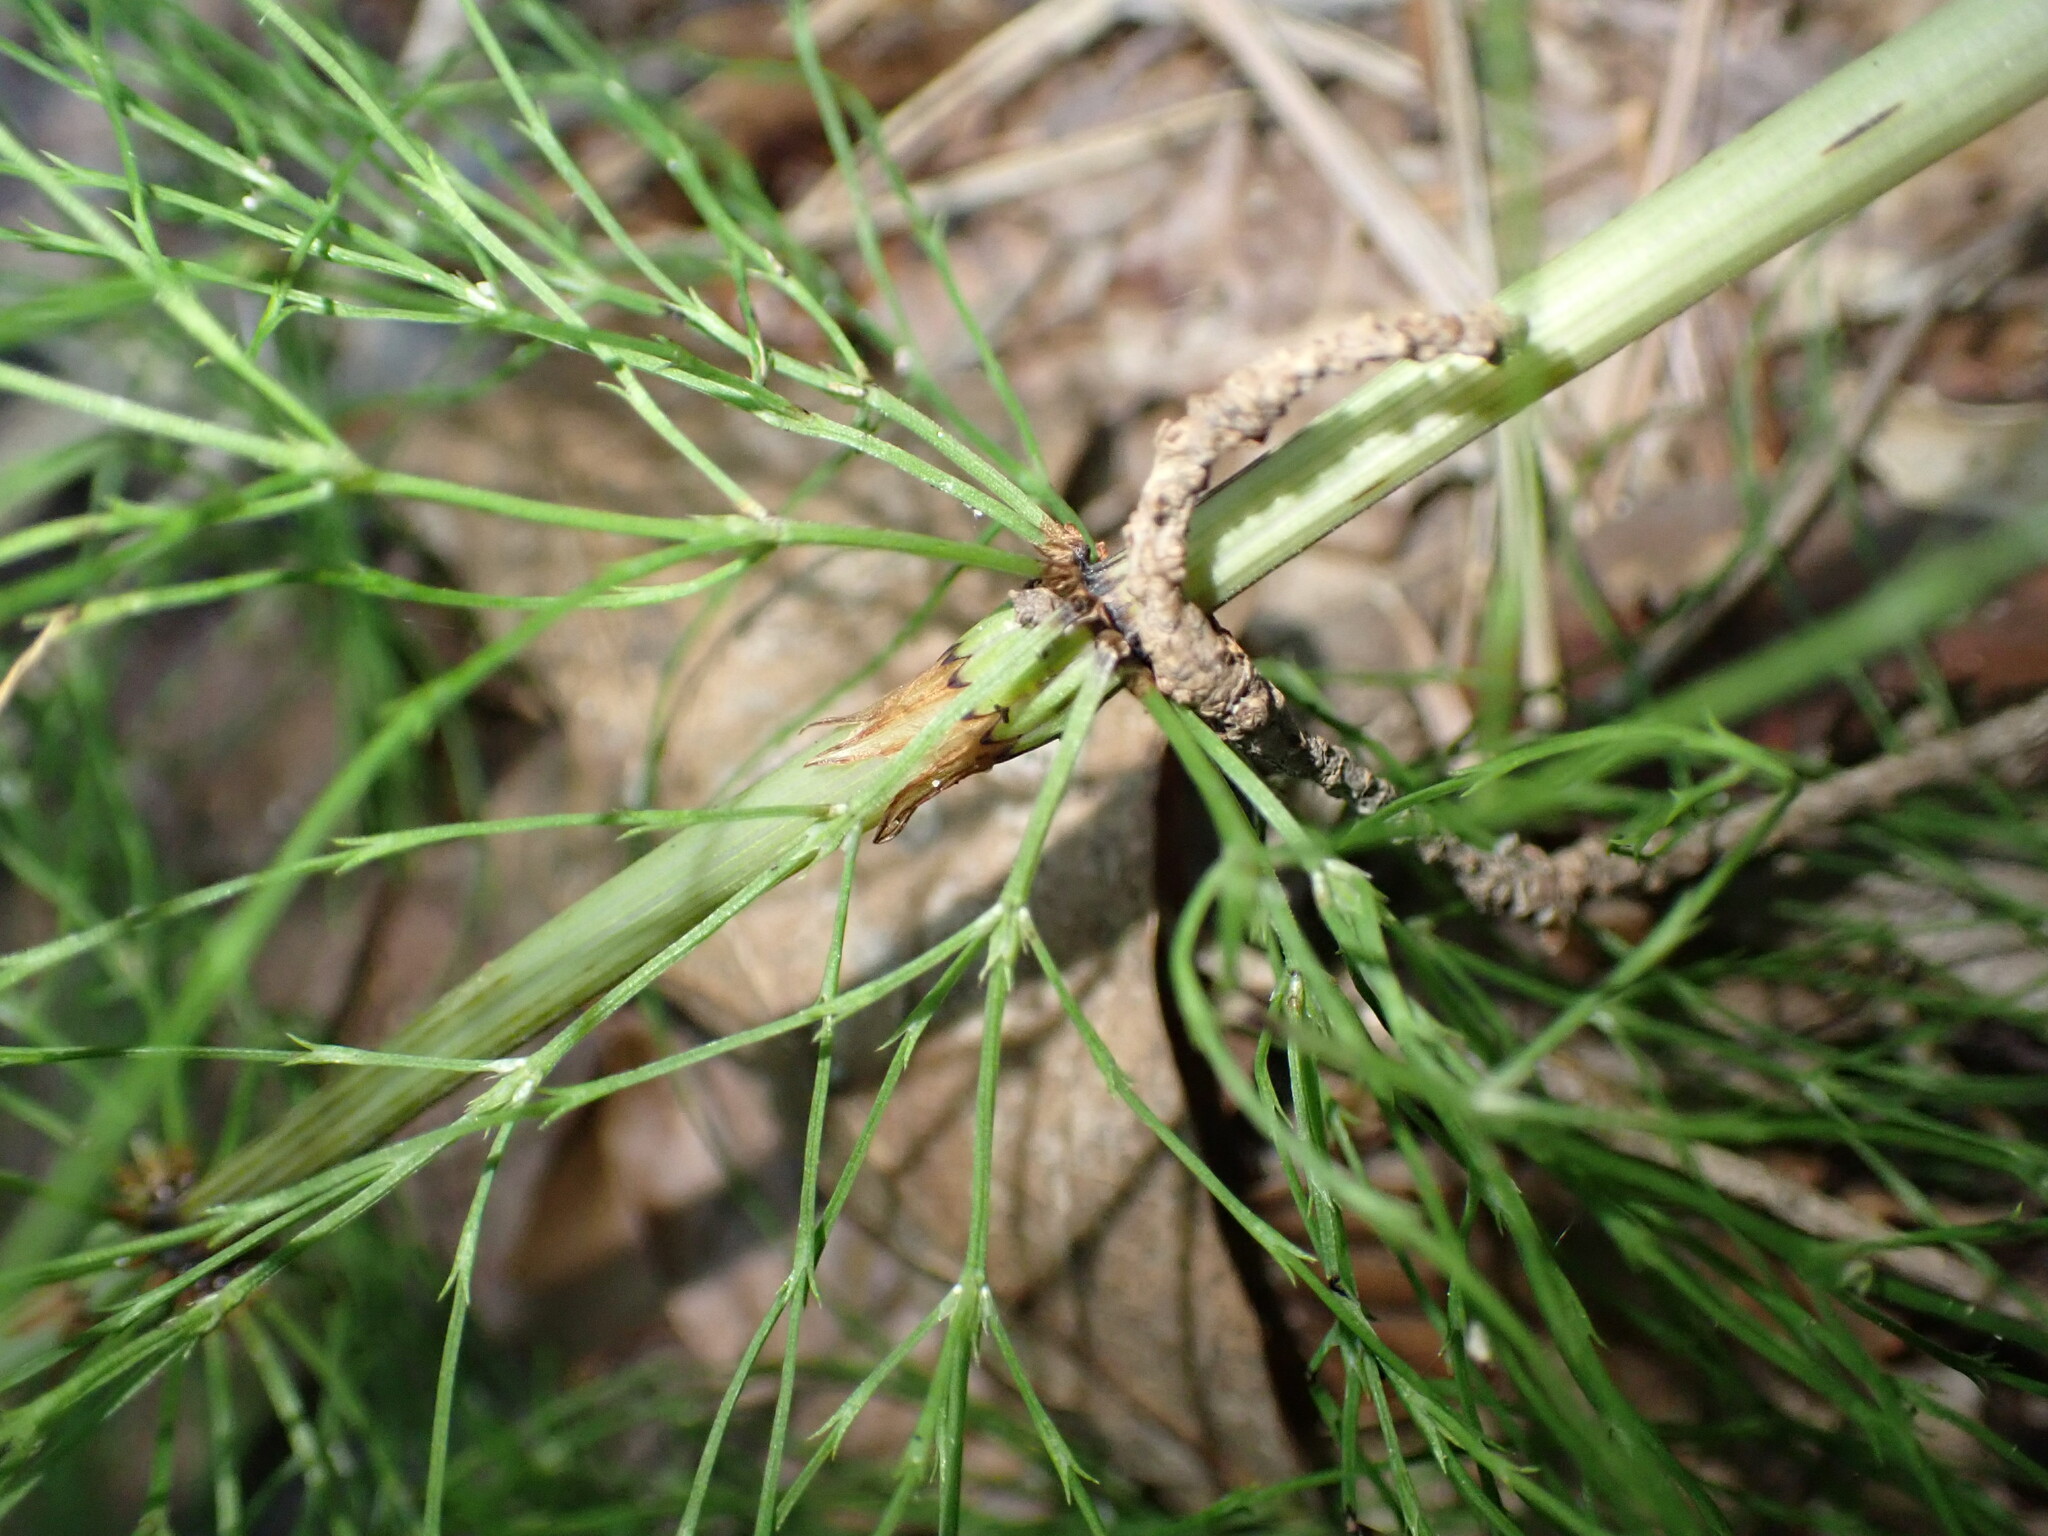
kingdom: Plantae
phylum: Tracheophyta
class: Polypodiopsida
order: Equisetales
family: Equisetaceae
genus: Equisetum
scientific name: Equisetum sylvaticum
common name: Wood horsetail
